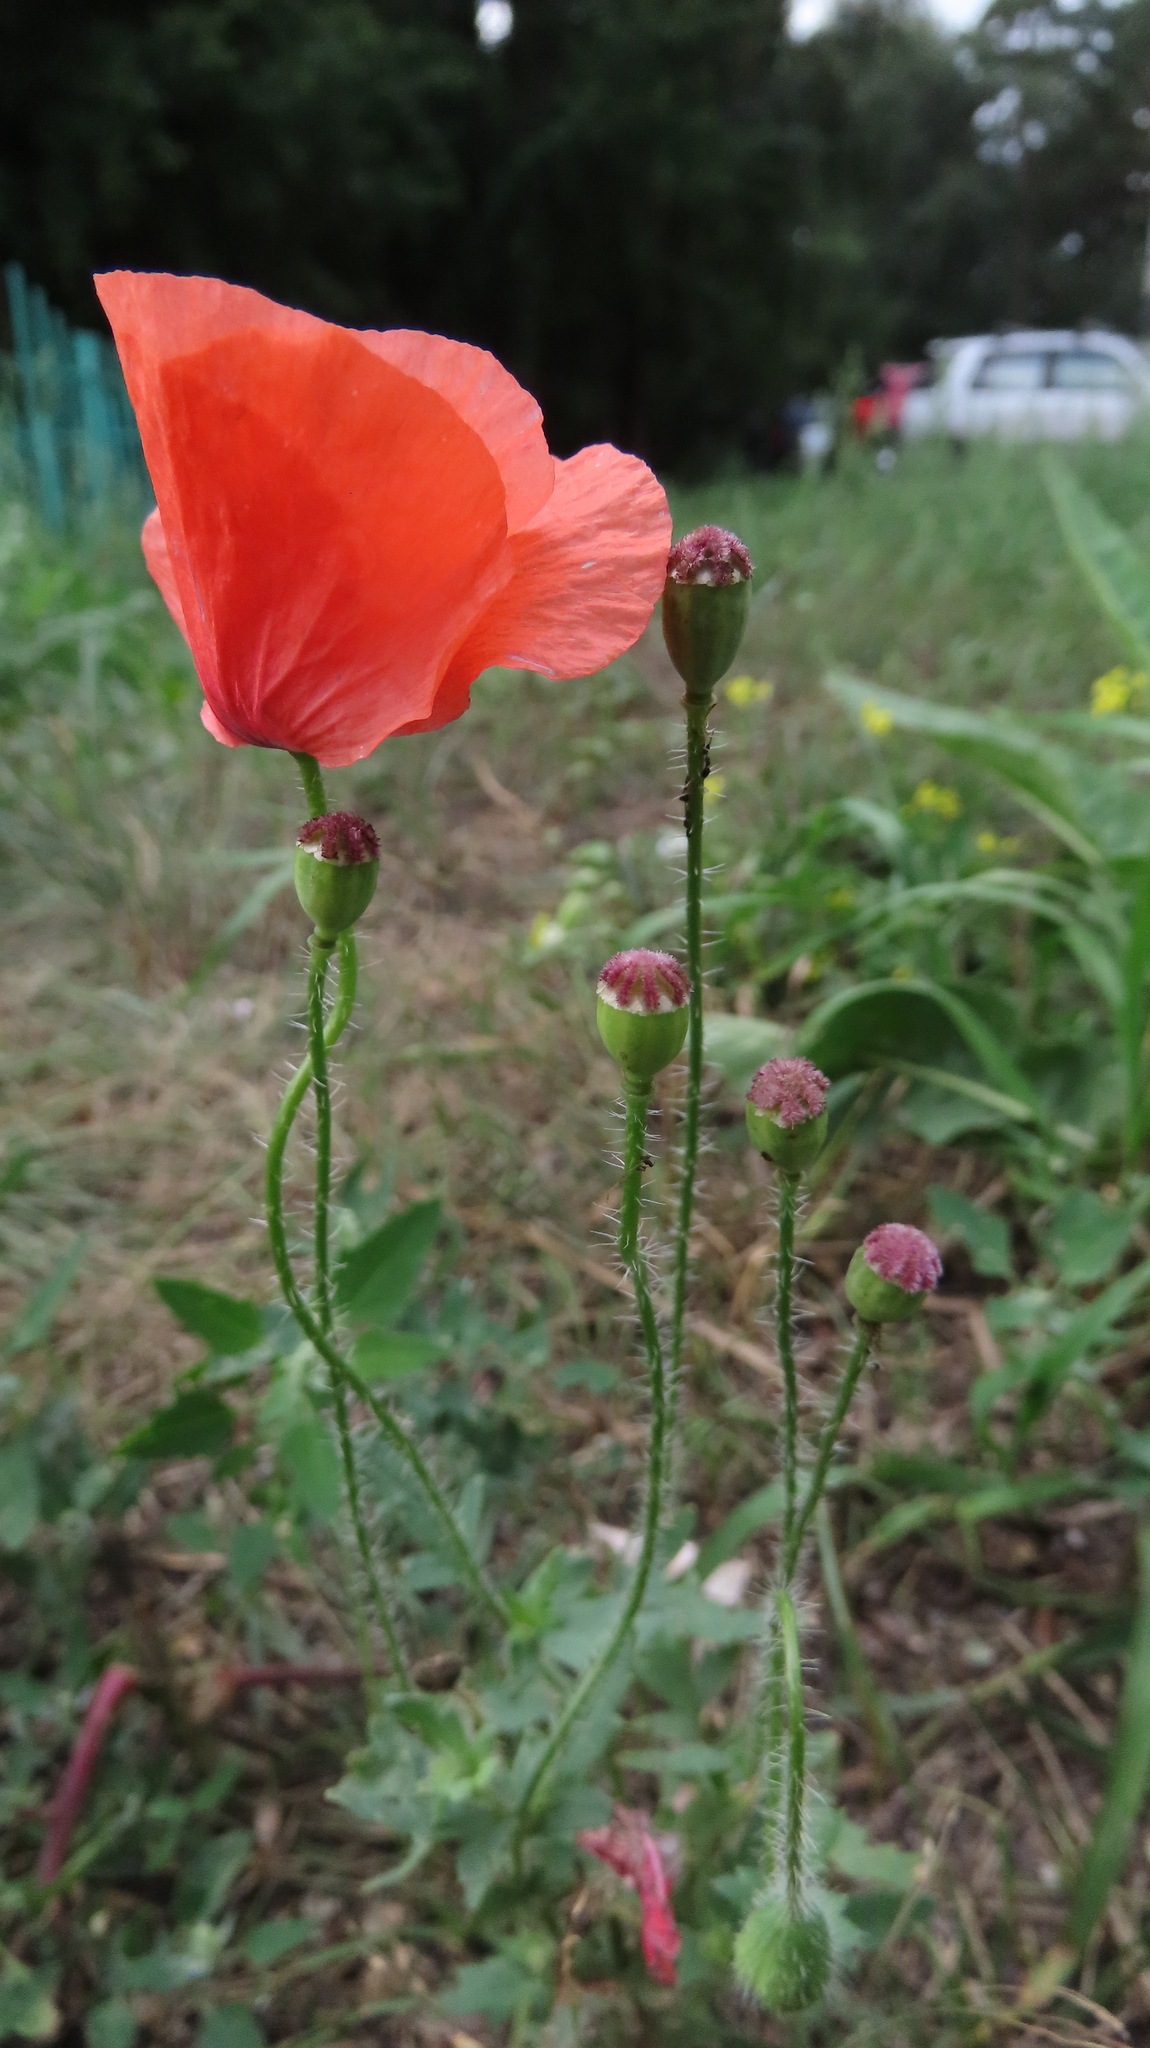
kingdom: Plantae
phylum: Tracheophyta
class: Magnoliopsida
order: Ranunculales
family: Papaveraceae
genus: Papaver
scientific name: Papaver rhoeas
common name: Corn poppy
